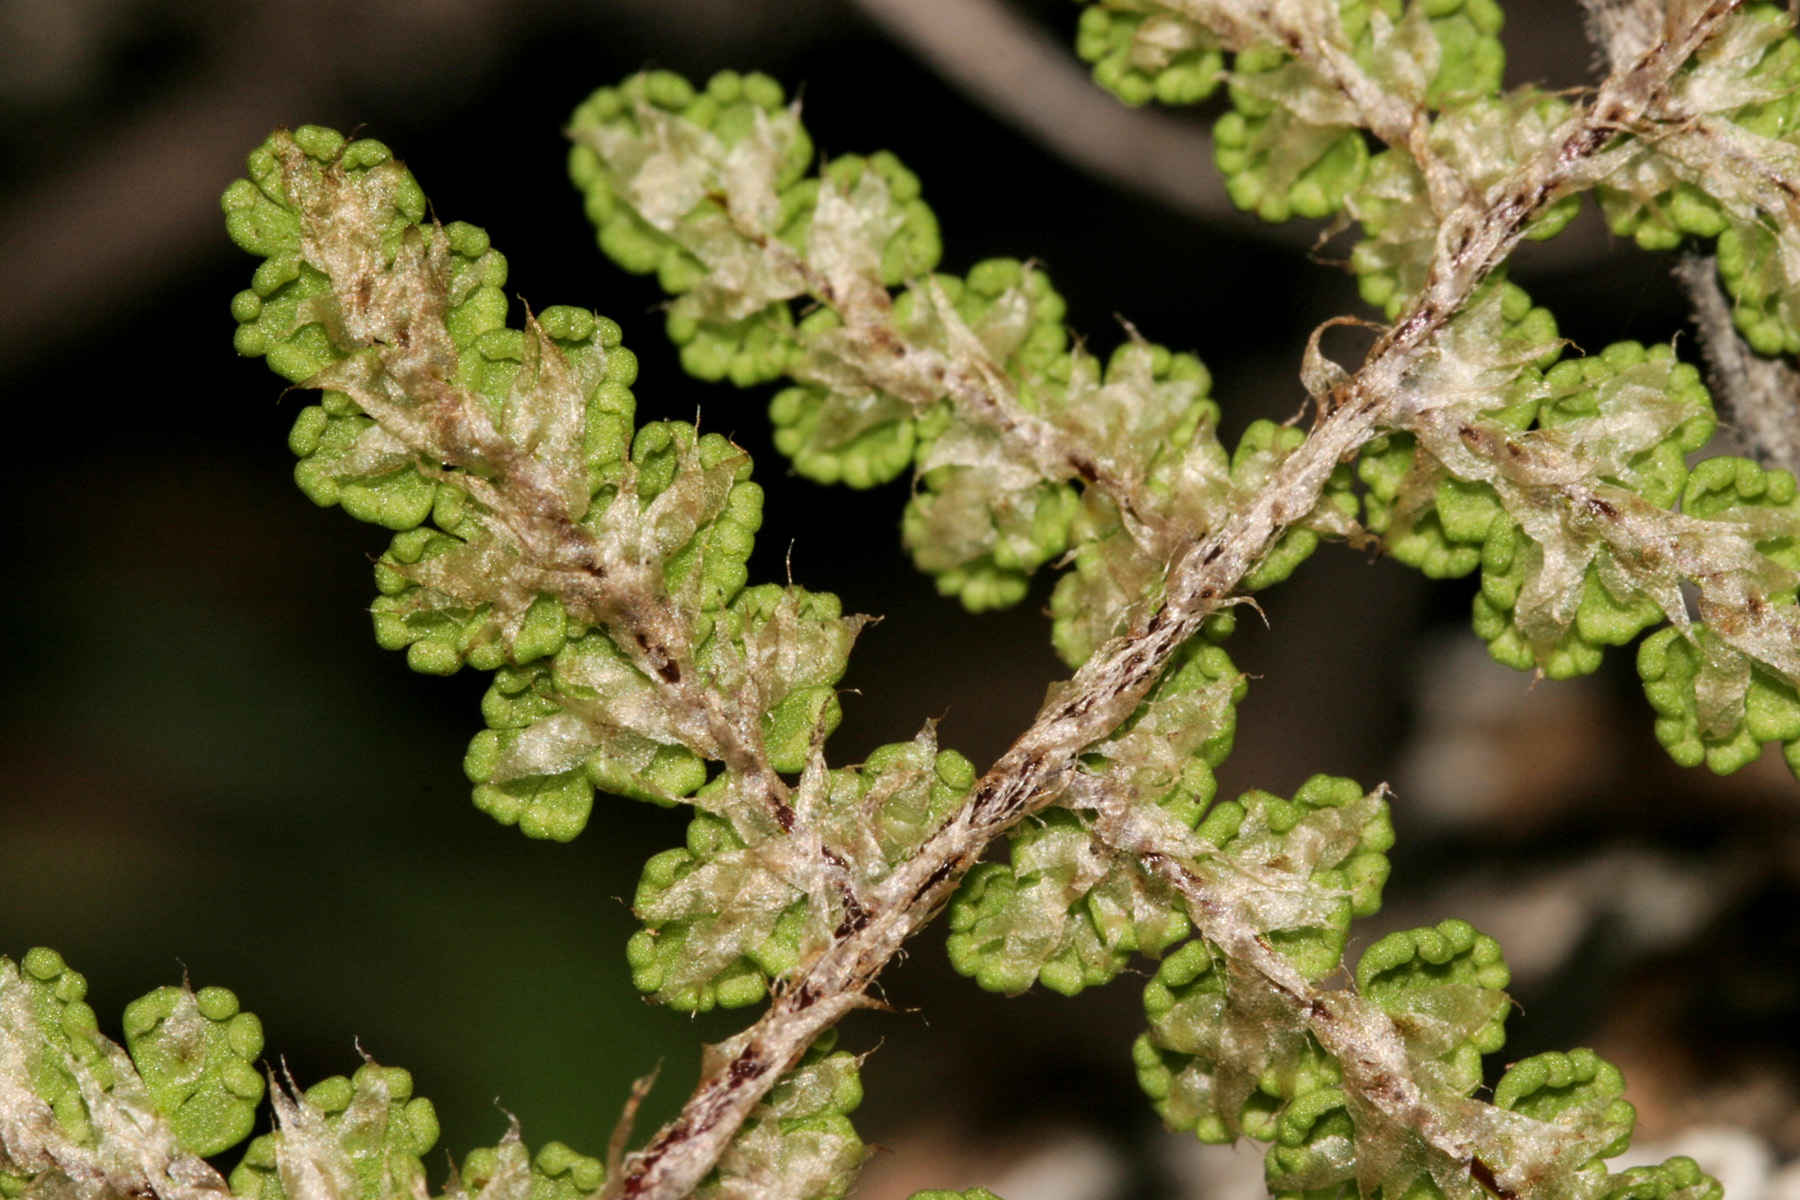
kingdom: Plantae
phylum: Tracheophyta
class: Polypodiopsida
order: Polypodiales
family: Pteridaceae
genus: Myriopteris
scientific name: Myriopteris fendleri
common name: Fendler's lip fern
